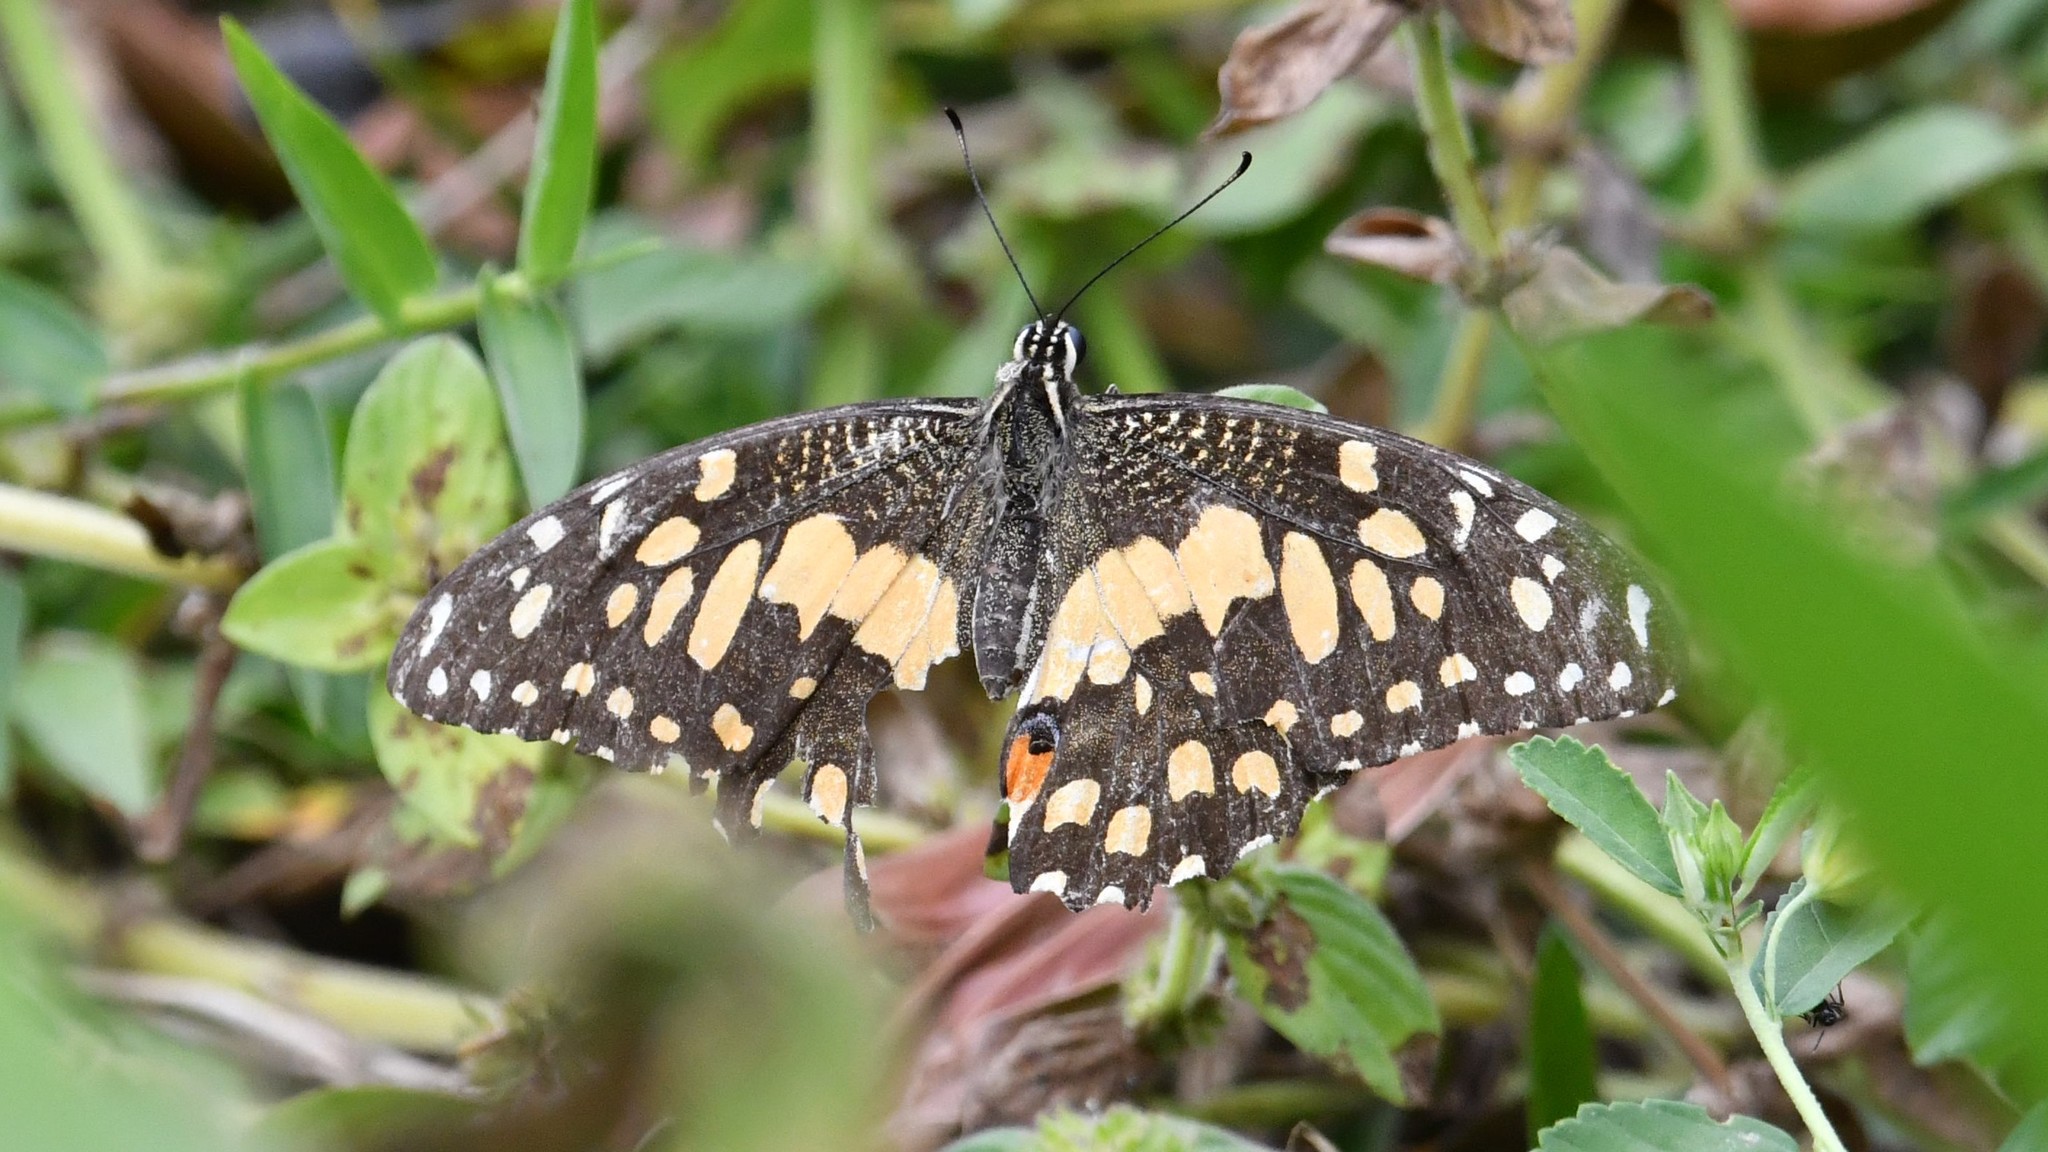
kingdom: Animalia
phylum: Arthropoda
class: Insecta
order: Lepidoptera
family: Papilionidae
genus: Papilio
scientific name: Papilio demoleus
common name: Lime butterfly
